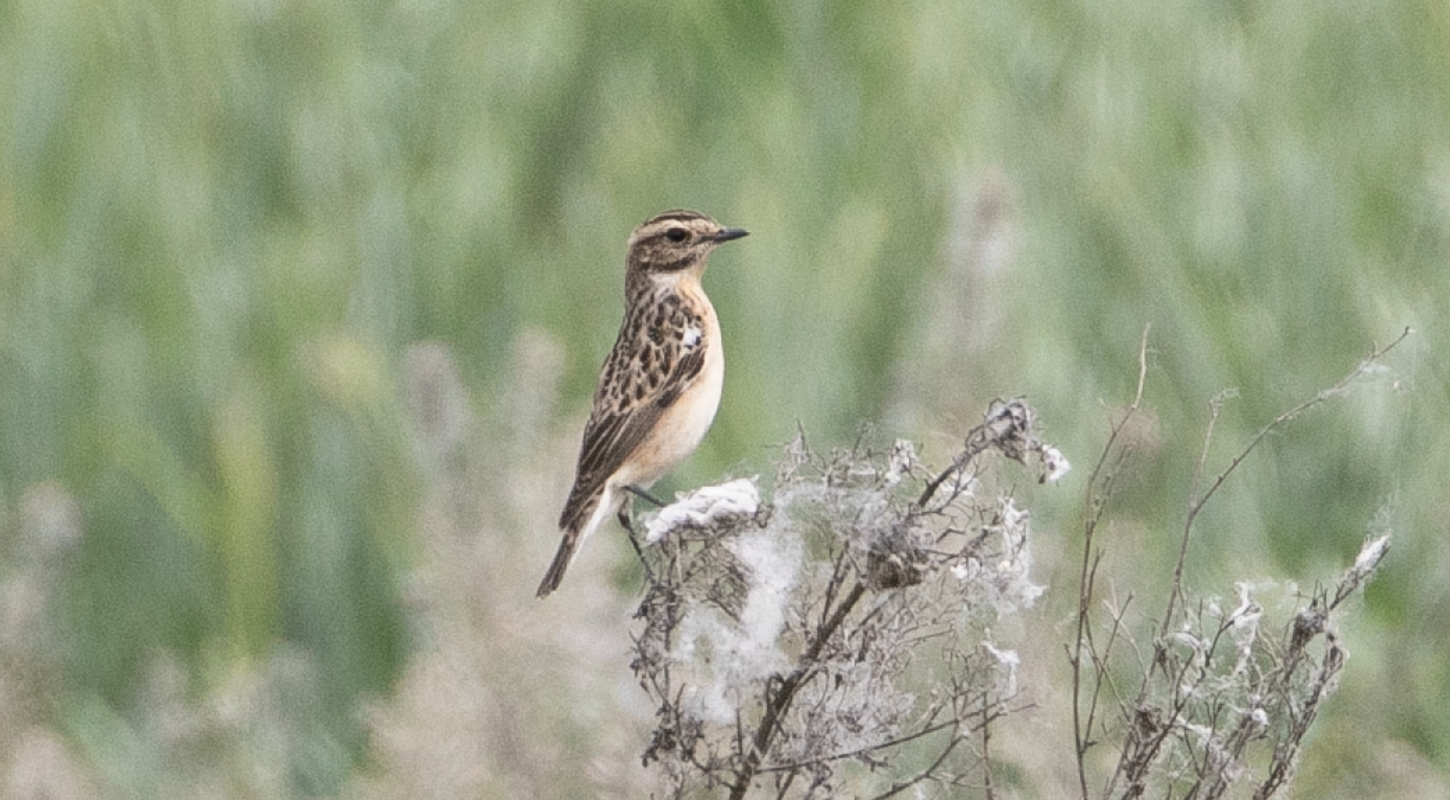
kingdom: Animalia
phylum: Chordata
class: Aves
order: Passeriformes
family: Muscicapidae
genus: Saxicola
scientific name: Saxicola rubetra
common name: Whinchat
